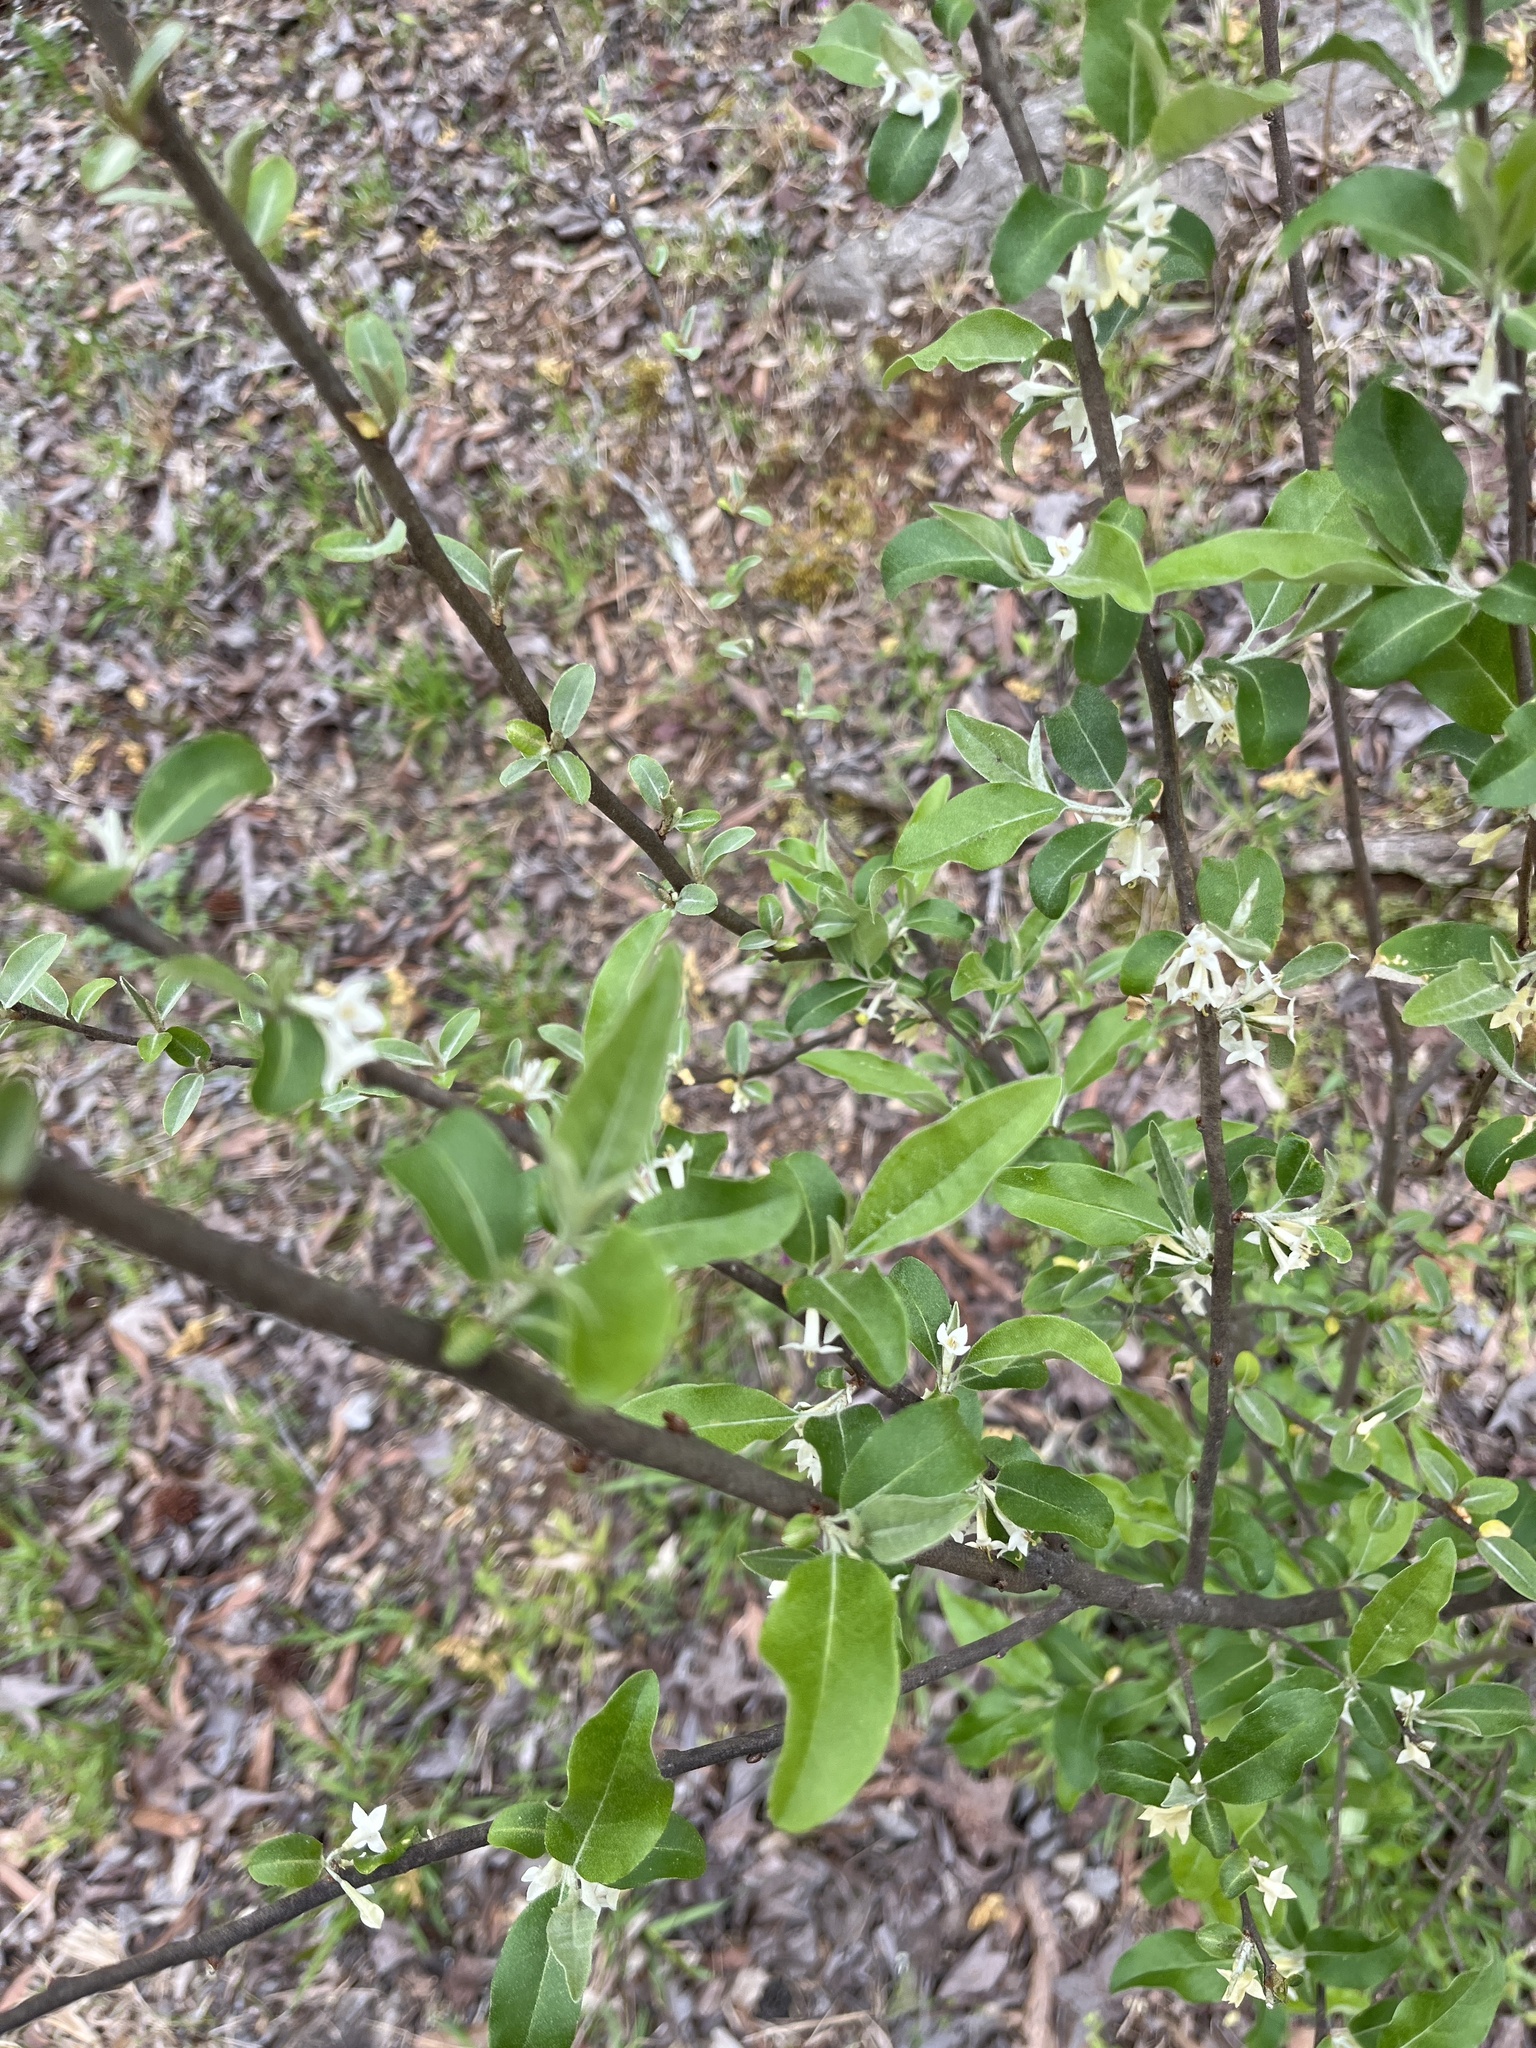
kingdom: Plantae
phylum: Tracheophyta
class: Magnoliopsida
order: Rosales
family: Elaeagnaceae
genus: Elaeagnus
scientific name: Elaeagnus umbellata
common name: Autumn olive
